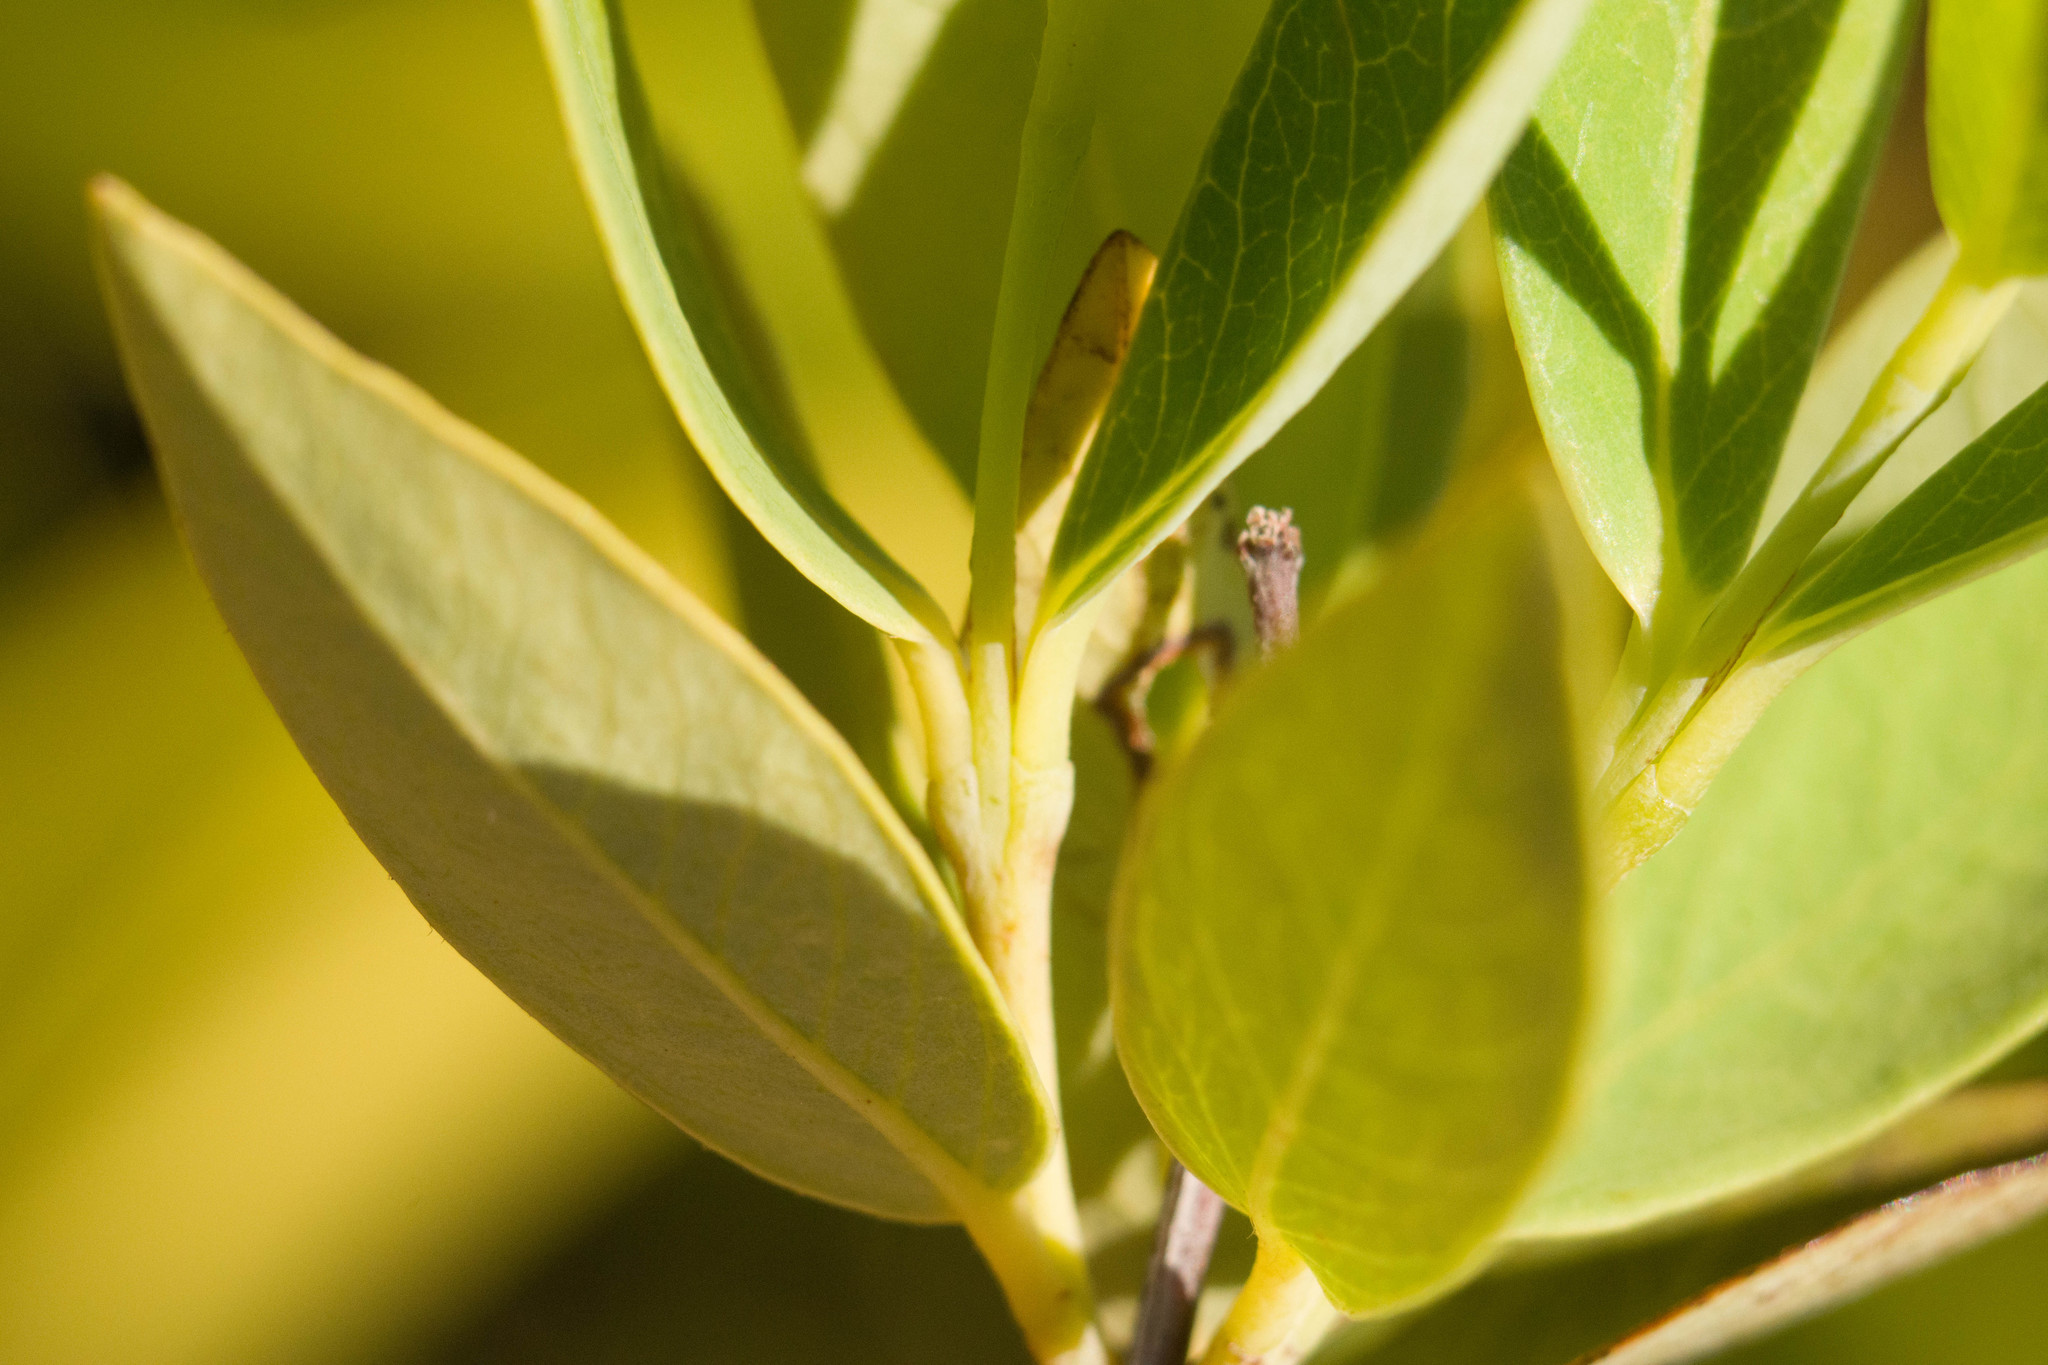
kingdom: Plantae
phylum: Tracheophyta
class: Magnoliopsida
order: Malvales
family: Thymelaeaceae
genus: Wikstroemia
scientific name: Wikstroemia oahuensis
